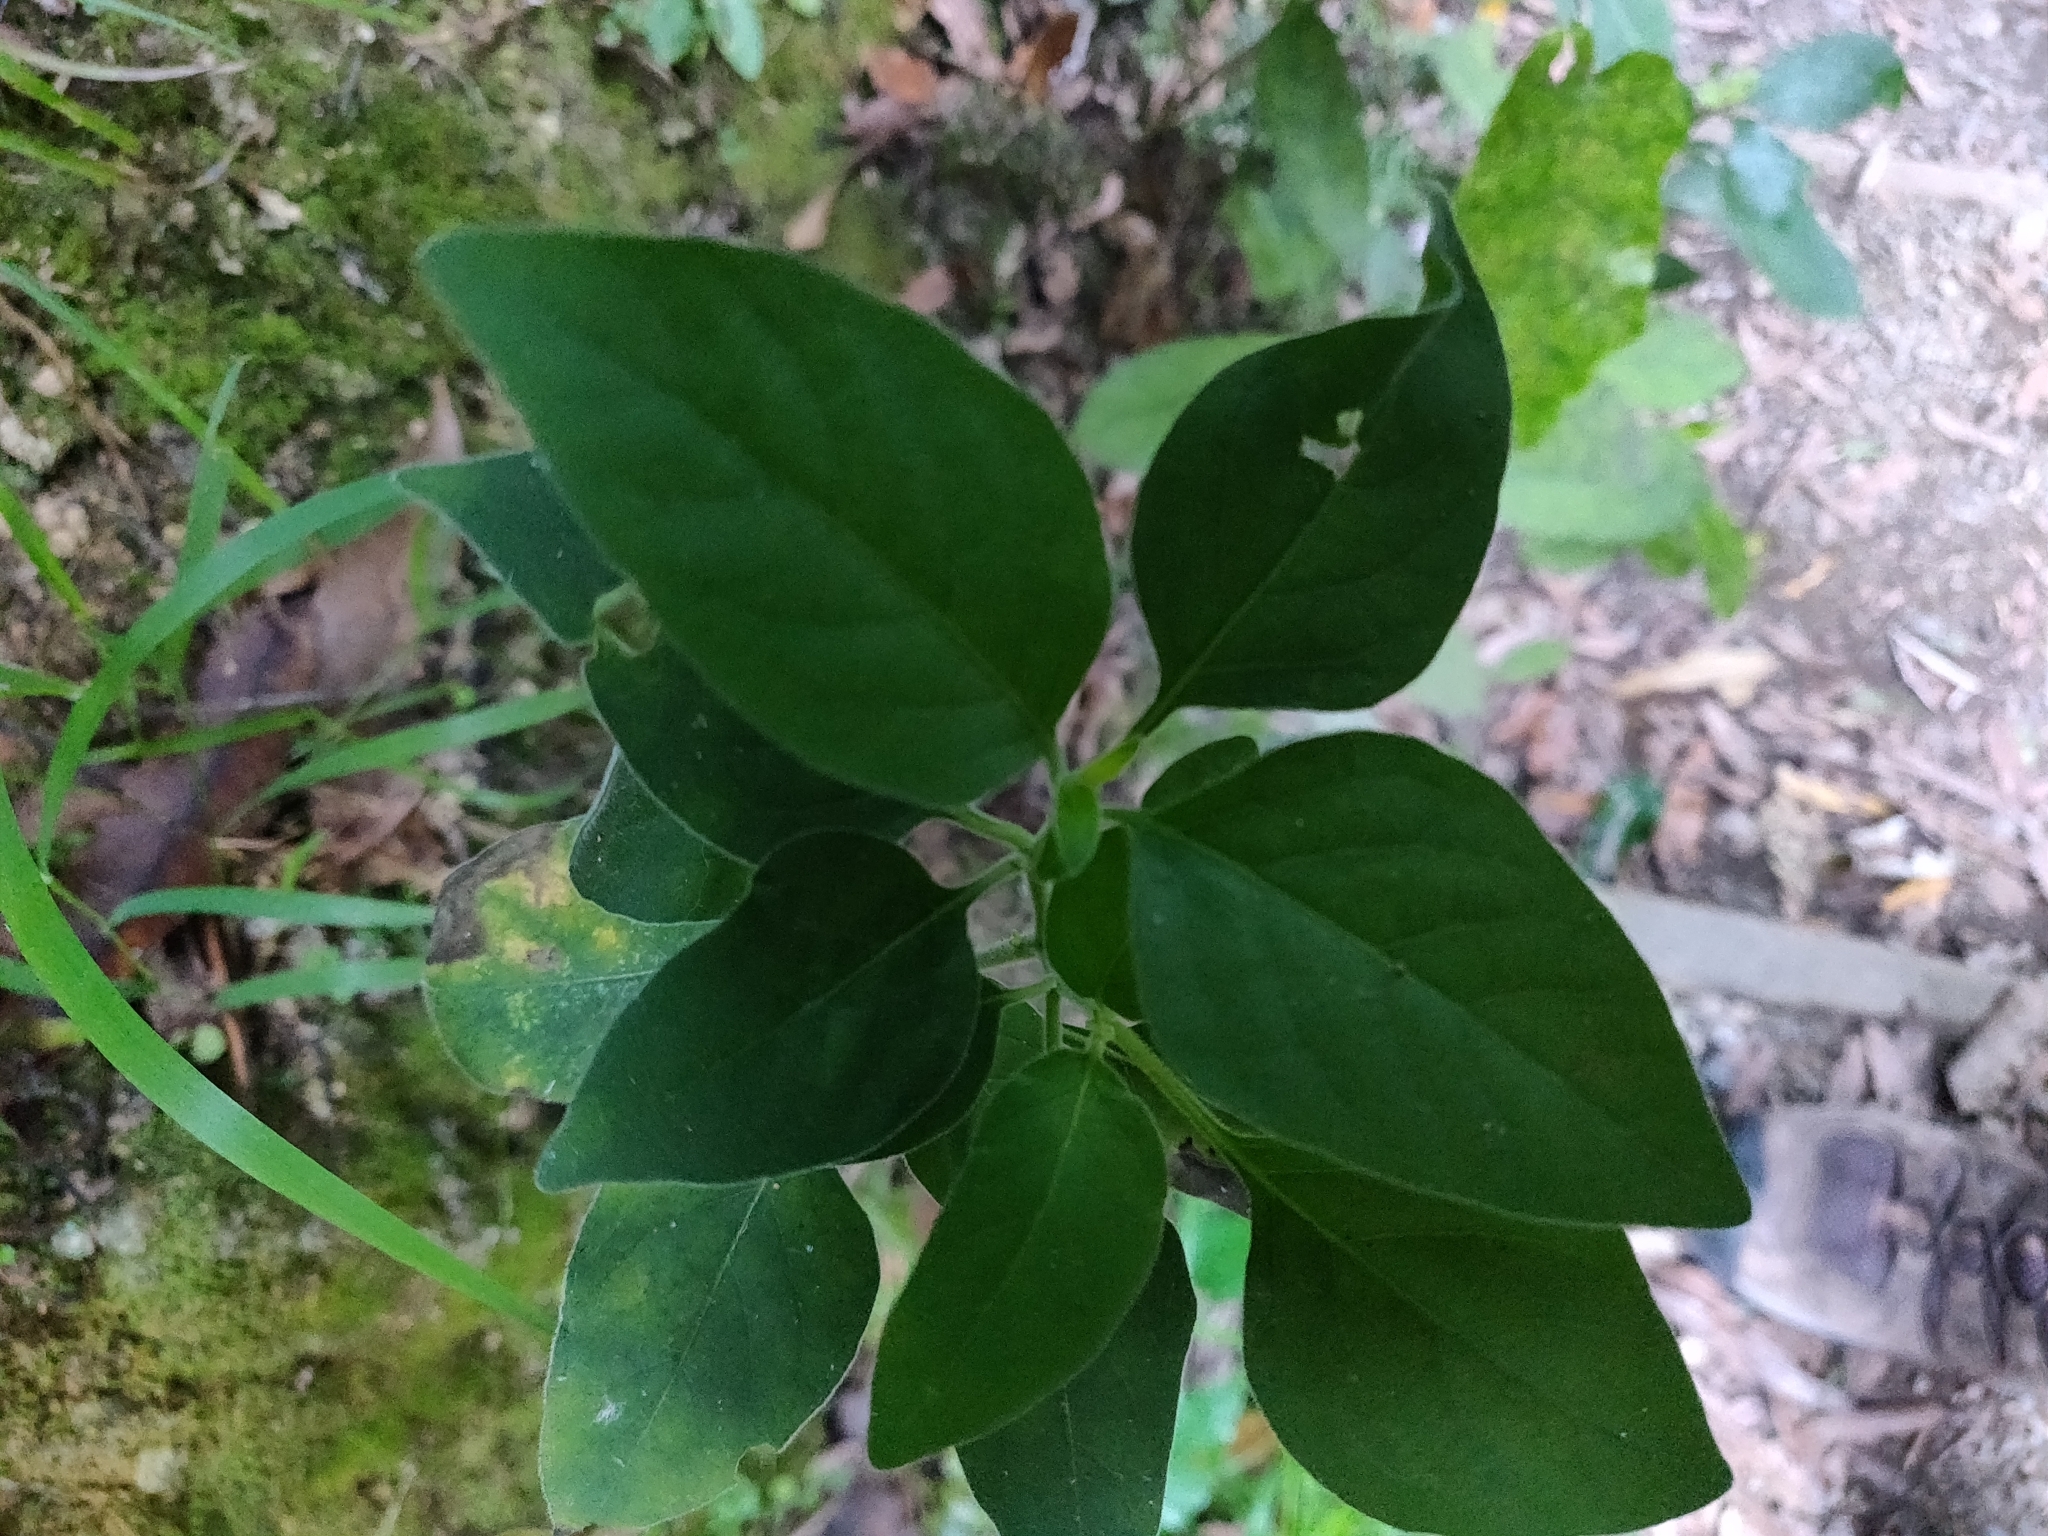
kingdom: Plantae
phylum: Tracheophyta
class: Magnoliopsida
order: Solanales
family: Solanaceae
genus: Solanum
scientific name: Solanum chenopodioides
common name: Tall nightshade
